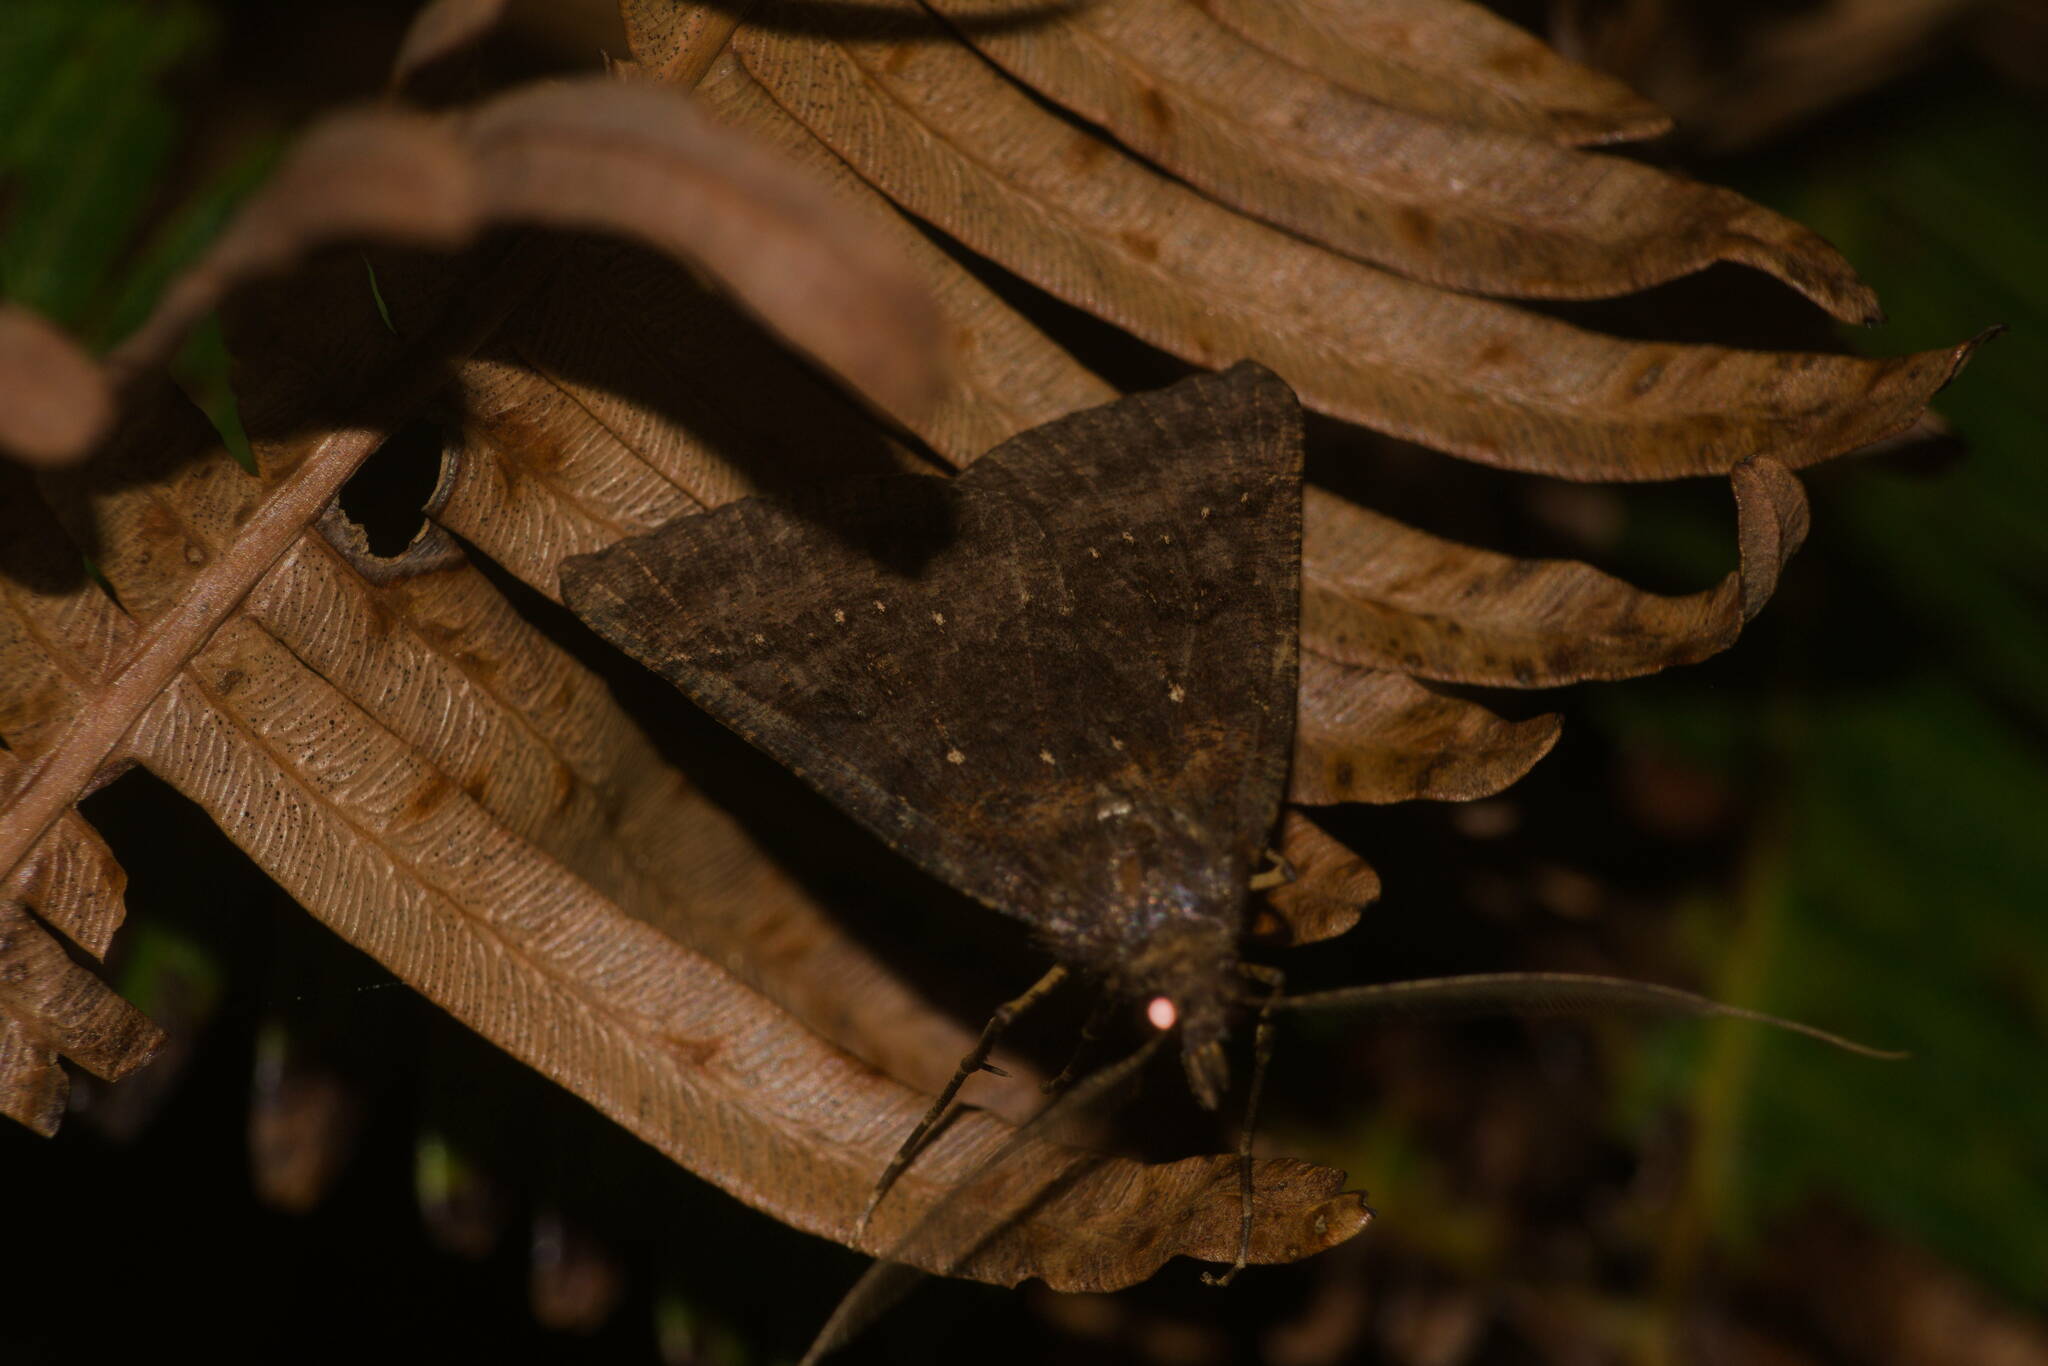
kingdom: Animalia
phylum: Arthropoda
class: Insecta
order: Lepidoptera
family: Geometridae
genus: Scotorythra
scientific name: Scotorythra rara
